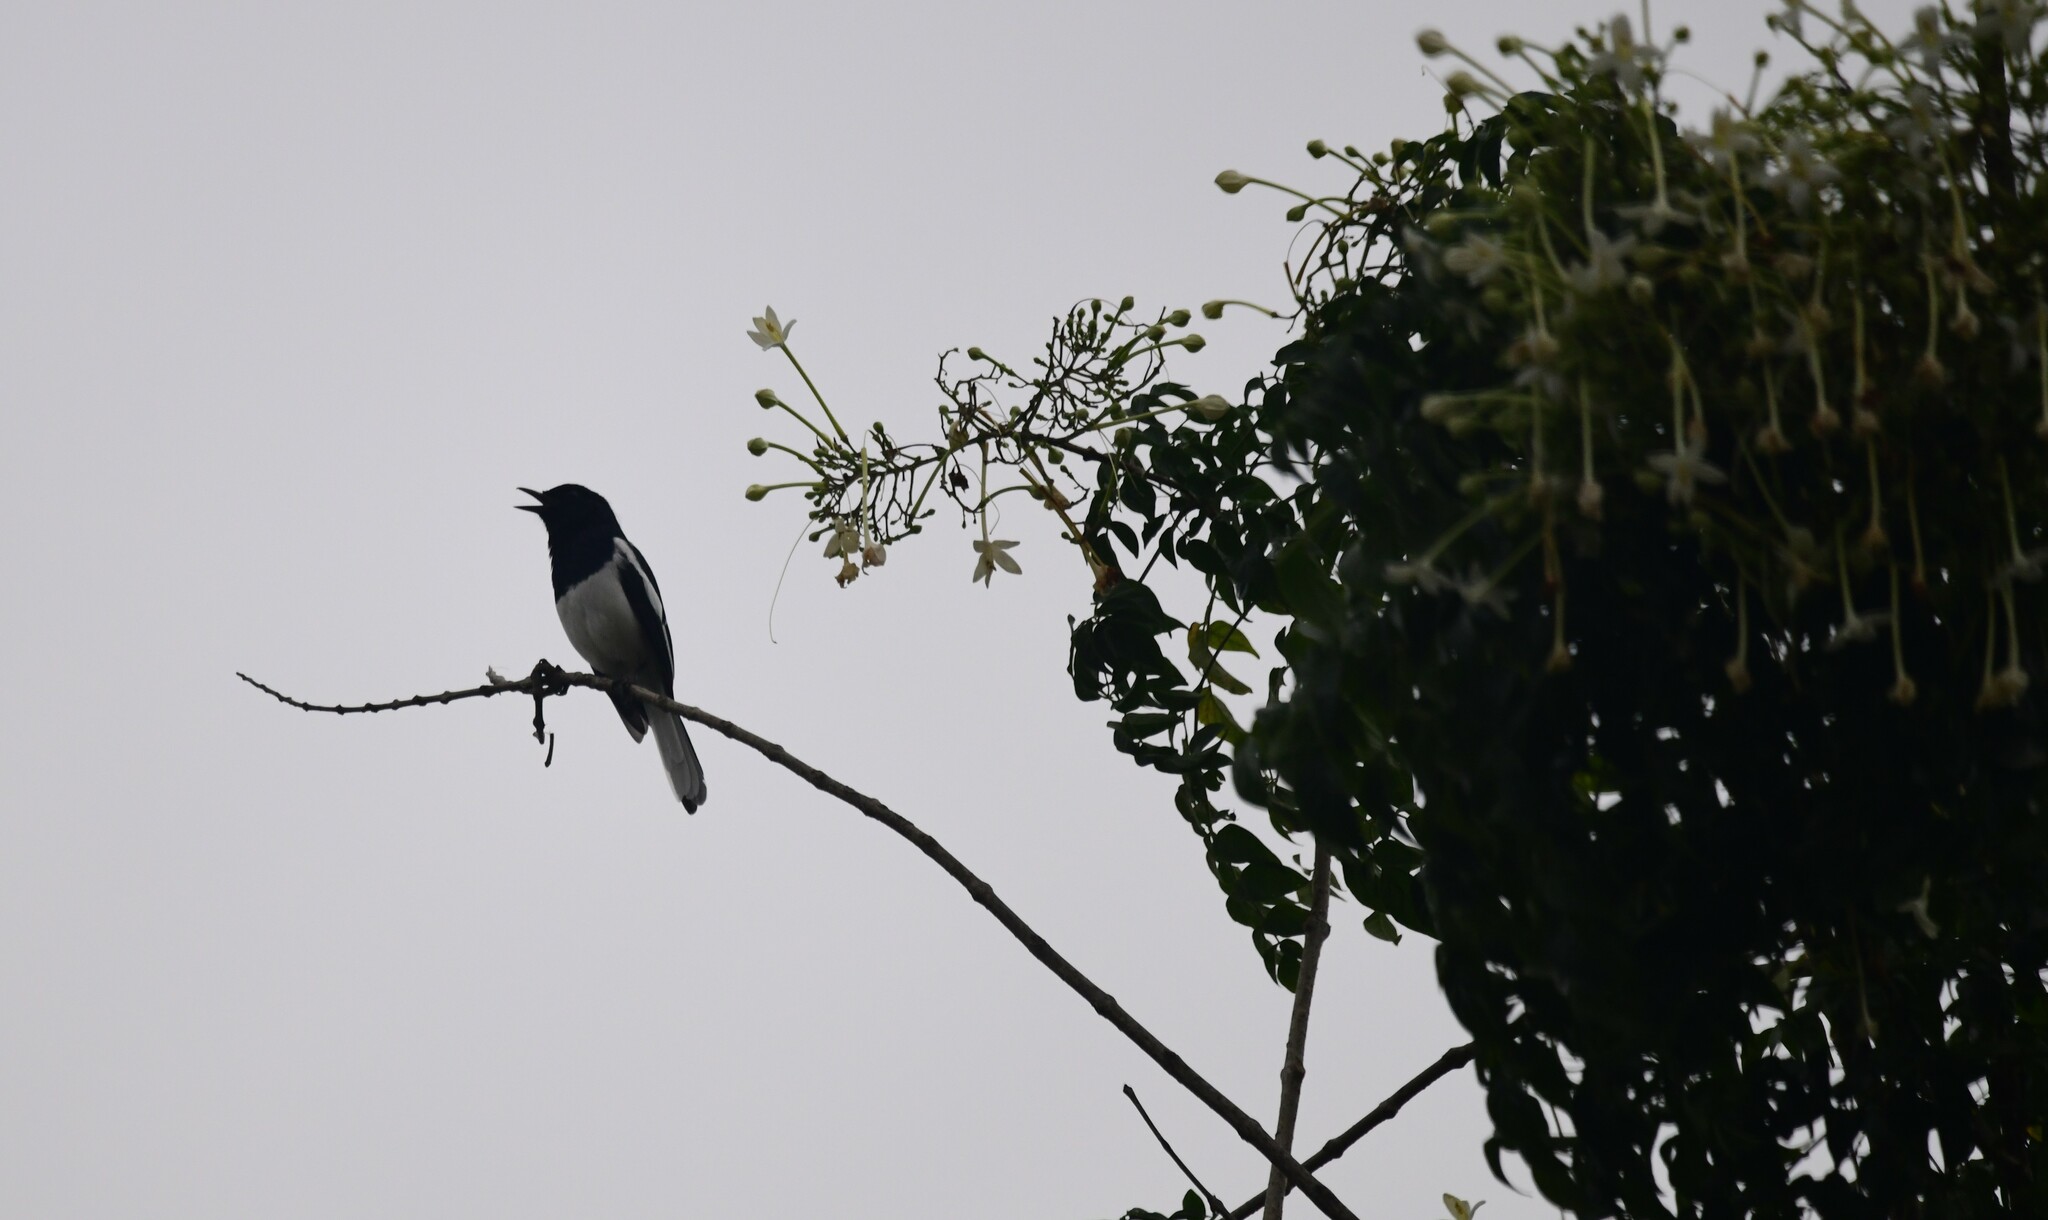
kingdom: Animalia
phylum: Chordata
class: Aves
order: Passeriformes
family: Muscicapidae
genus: Copsychus
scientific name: Copsychus saularis
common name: Oriental magpie-robin
